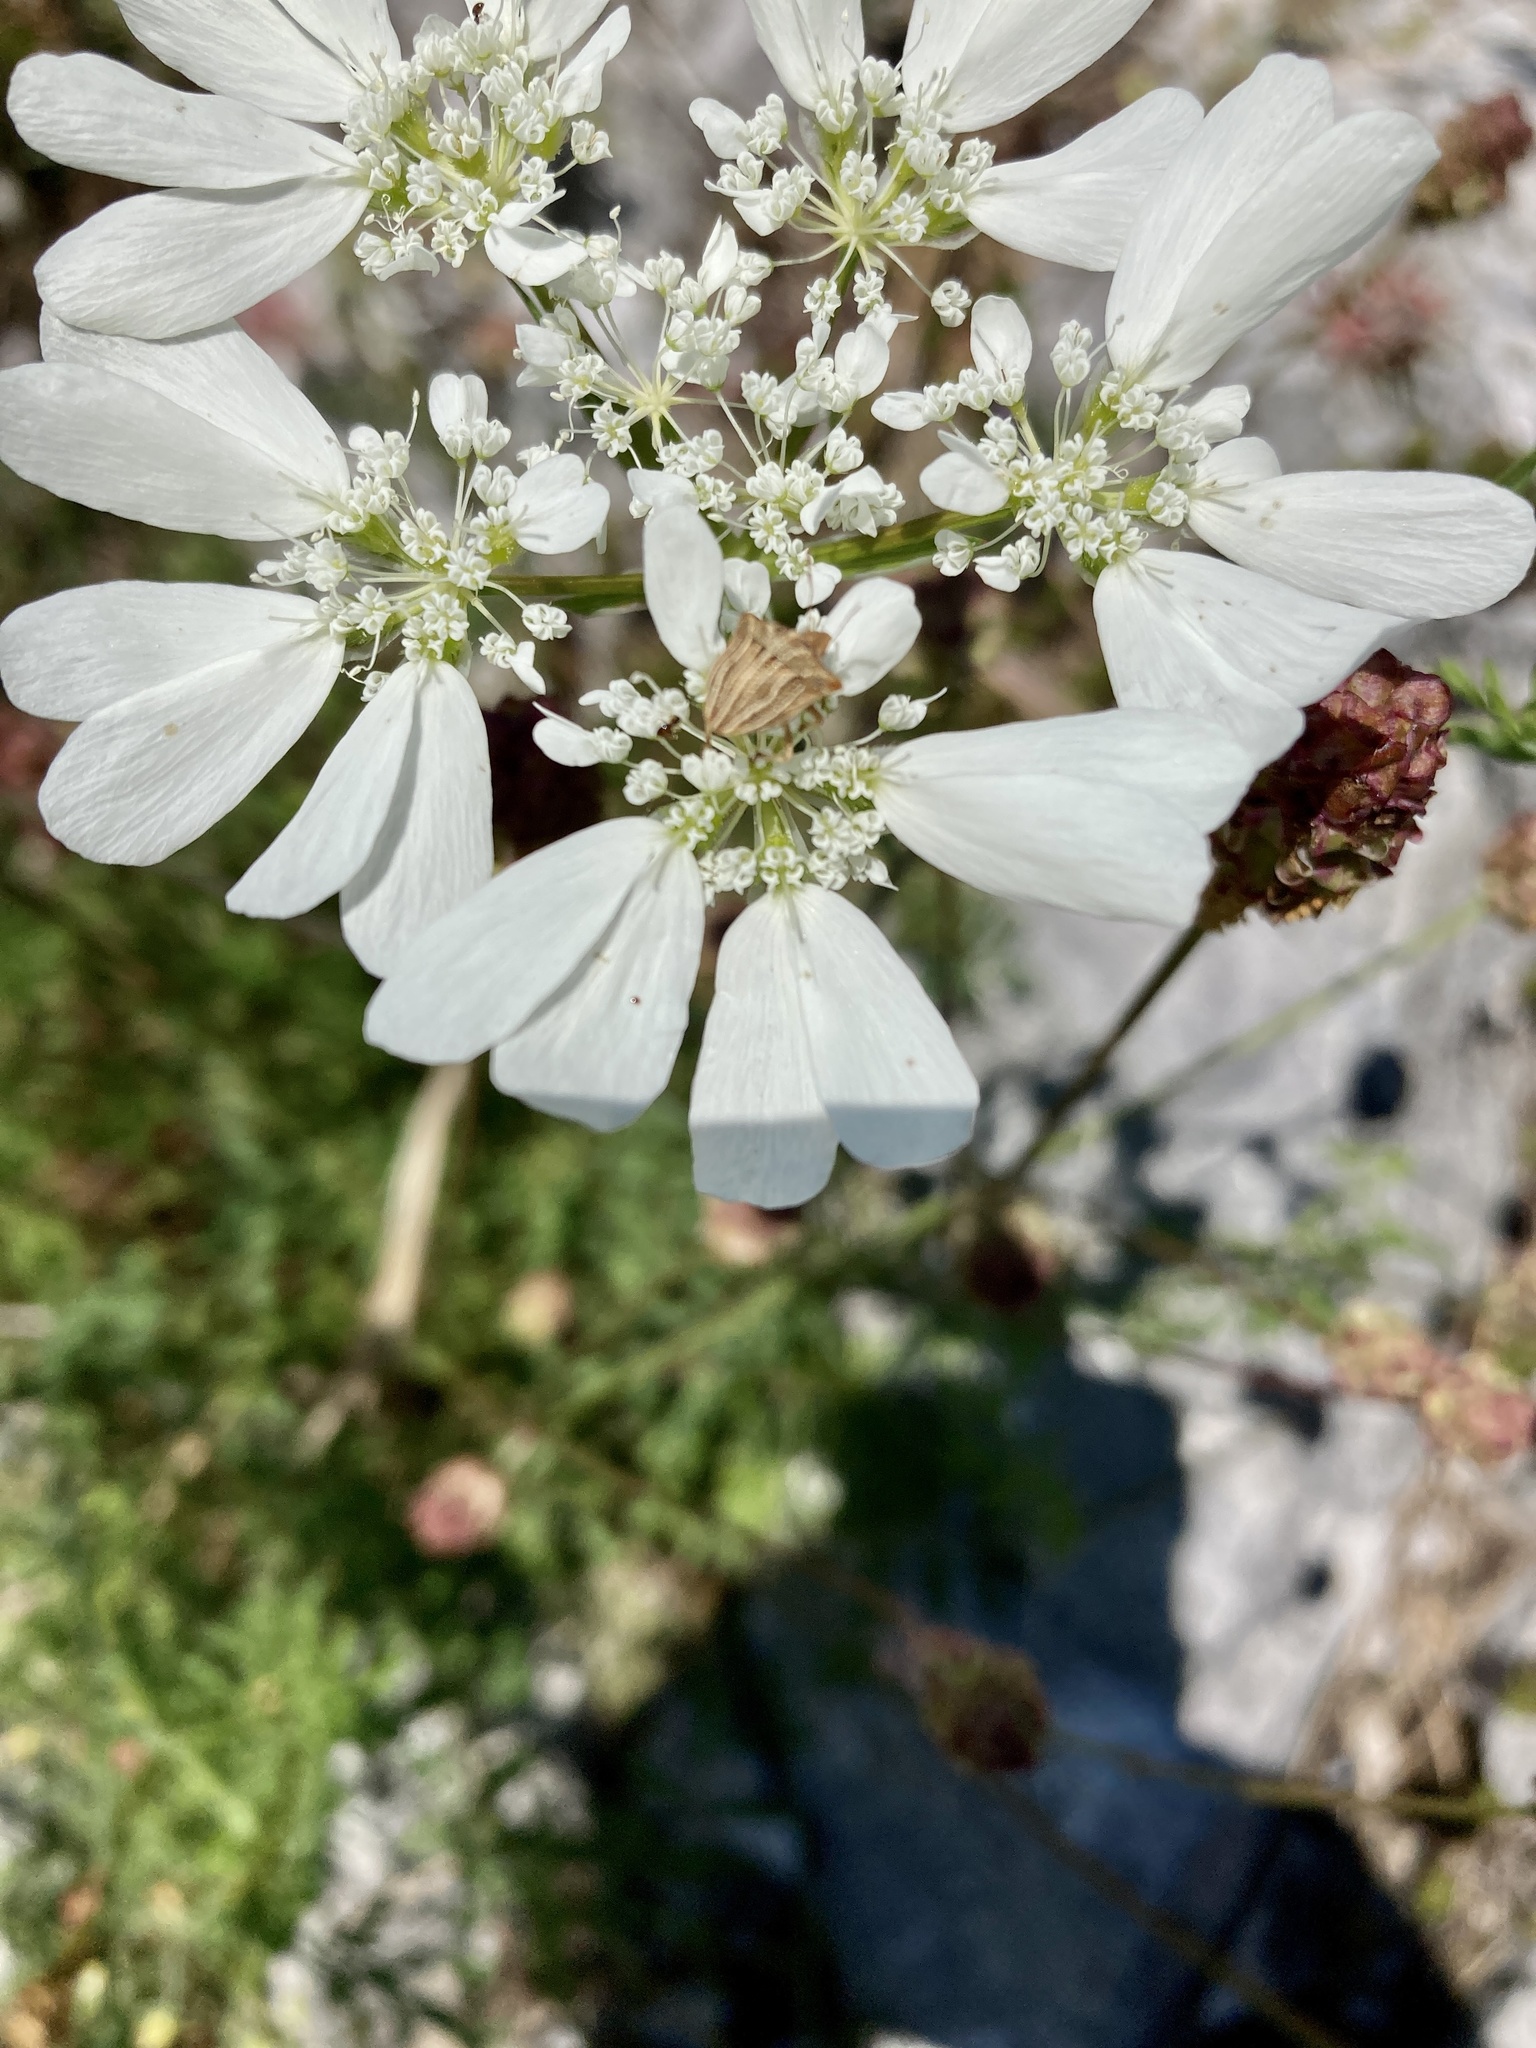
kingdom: Animalia
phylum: Arthropoda
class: Insecta
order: Hemiptera
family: Pentatomidae
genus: Ancyrosoma
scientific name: Ancyrosoma leucogrammes
